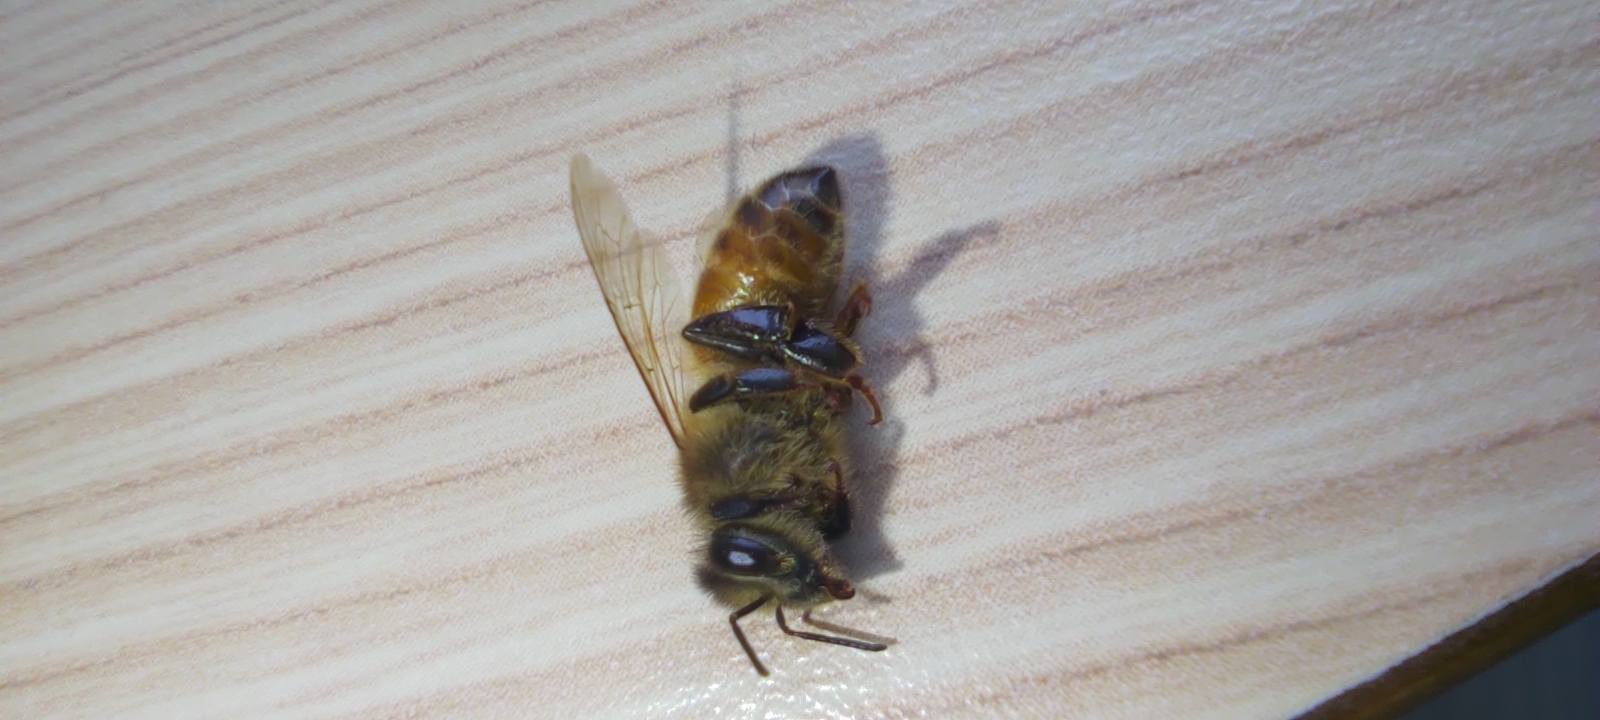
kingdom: Animalia
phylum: Arthropoda
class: Insecta
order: Hymenoptera
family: Apidae
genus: Apis
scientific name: Apis mellifera
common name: Honey bee
